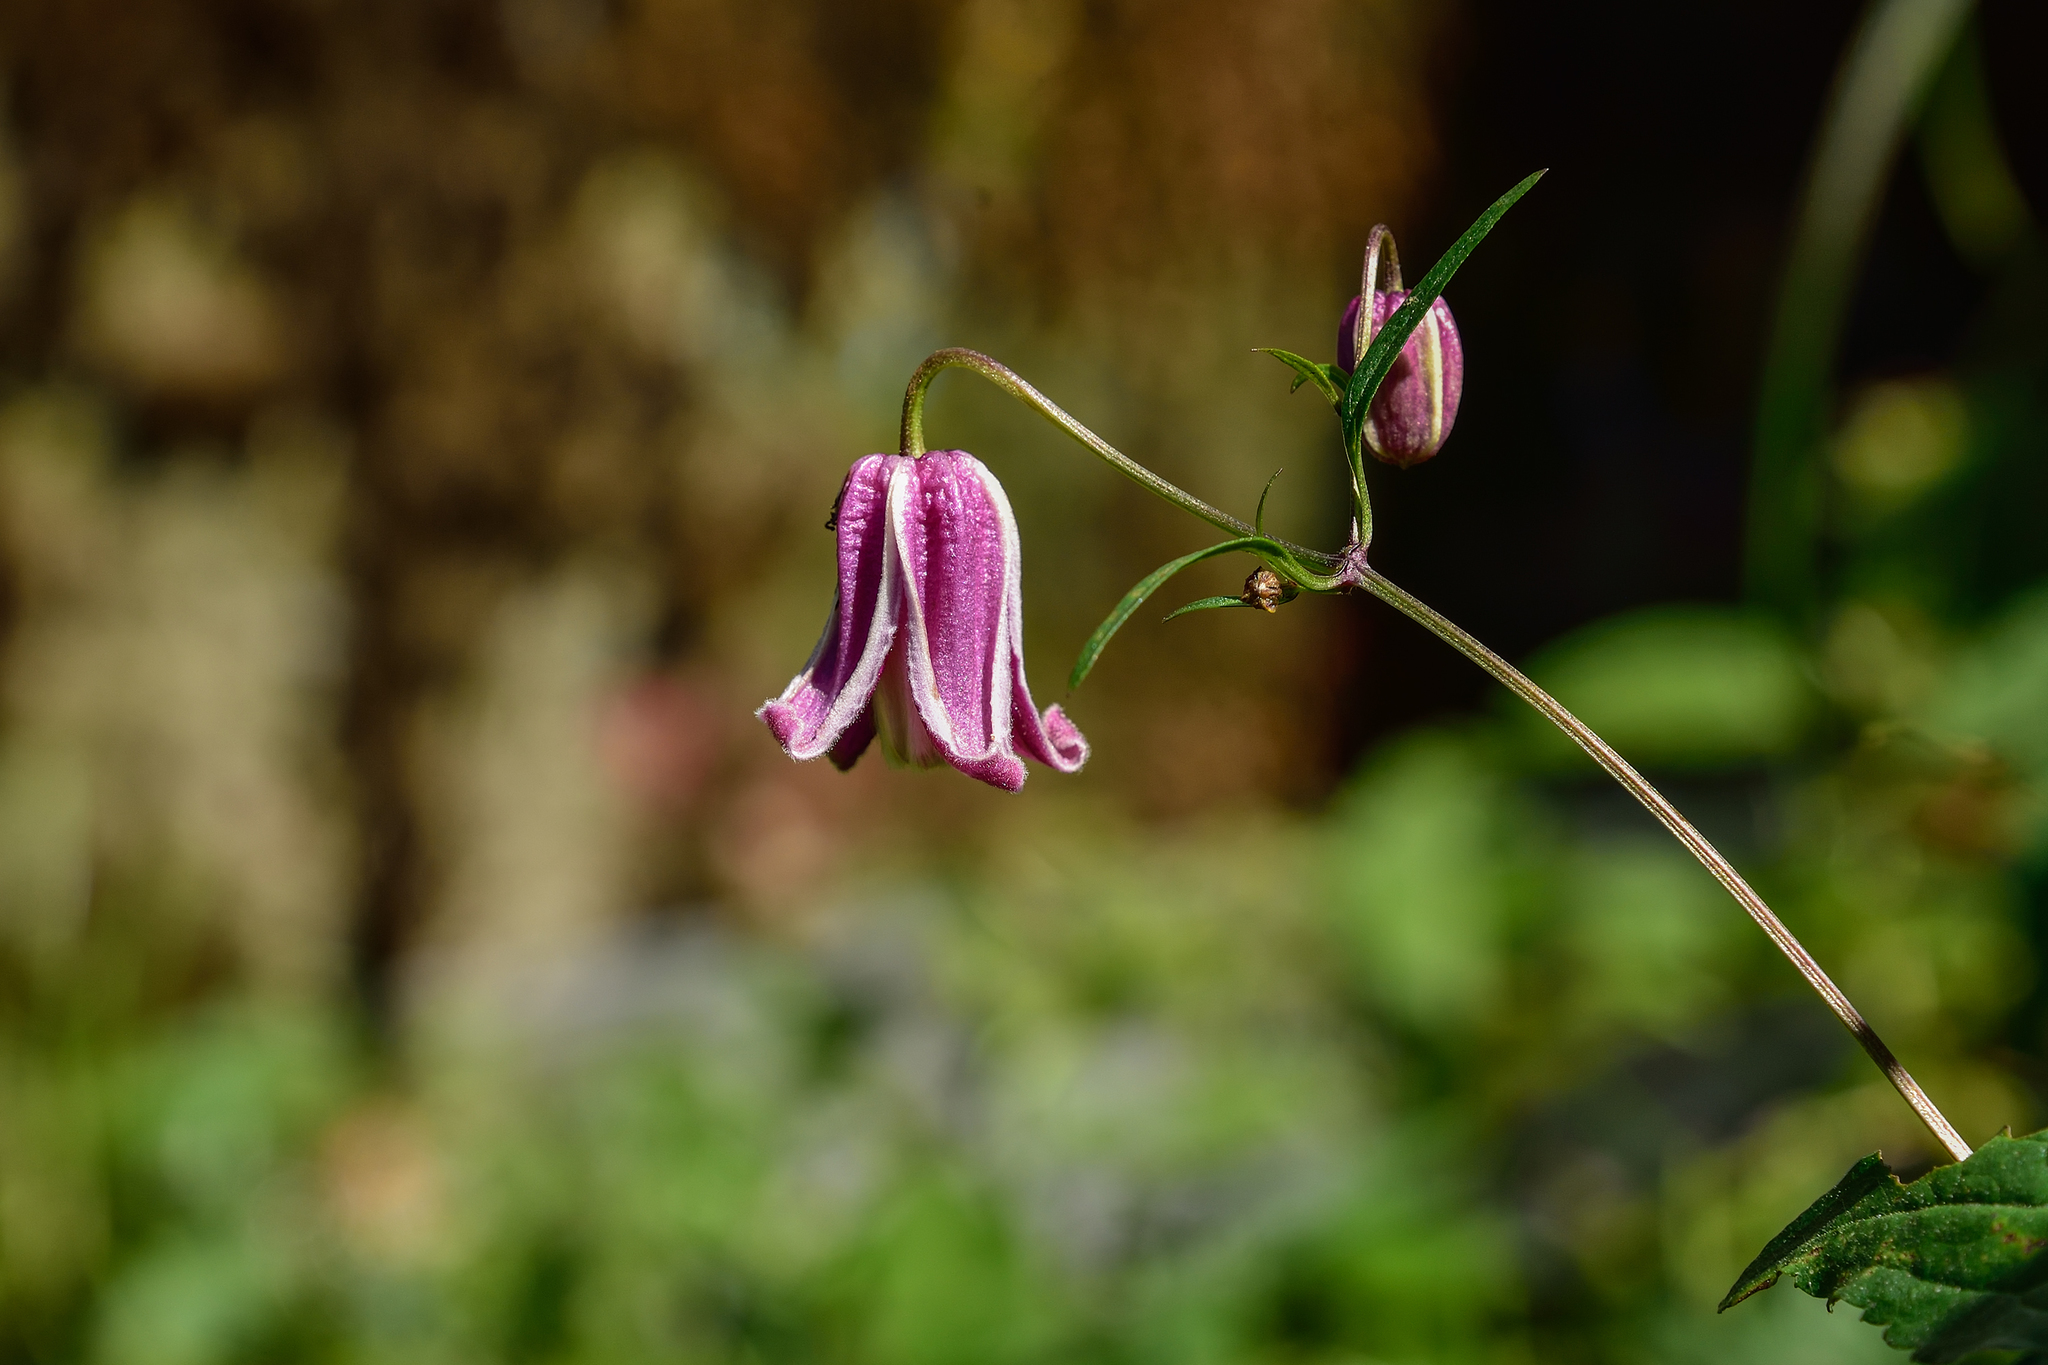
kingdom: Plantae
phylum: Tracheophyta
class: Magnoliopsida
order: Ranunculales
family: Ranunculaceae
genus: Clematis
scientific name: Clematis lasiandra
